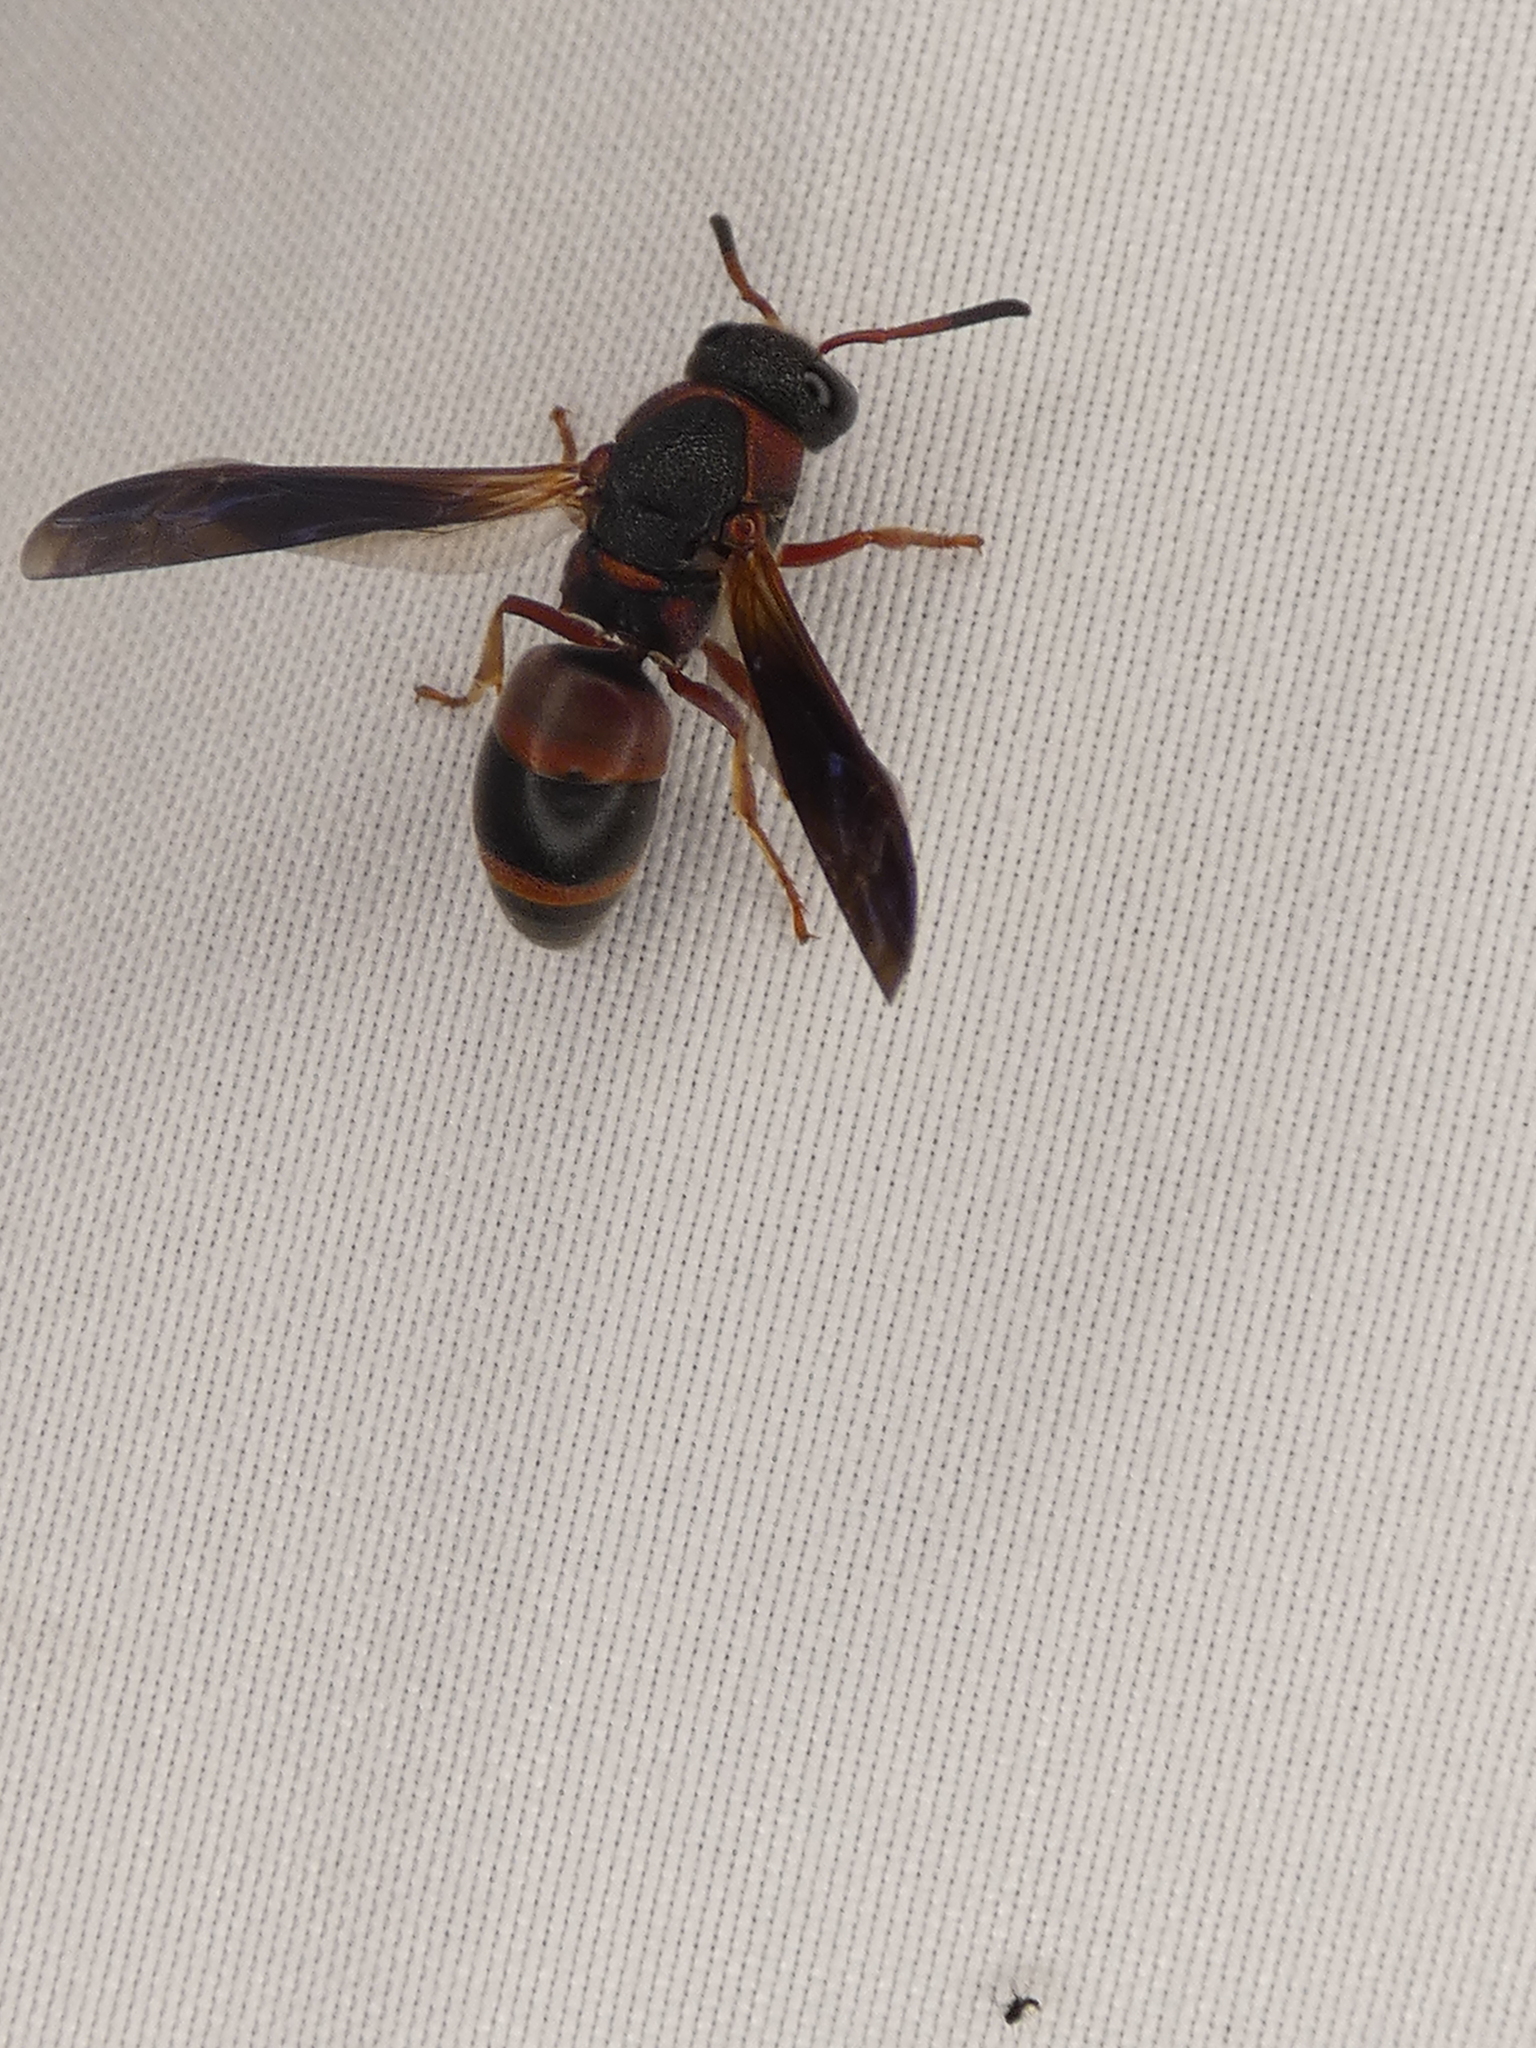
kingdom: Animalia
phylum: Arthropoda
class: Insecta
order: Hymenoptera
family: Eumenidae
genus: Pachodynerus
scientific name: Pachodynerus erynnis
